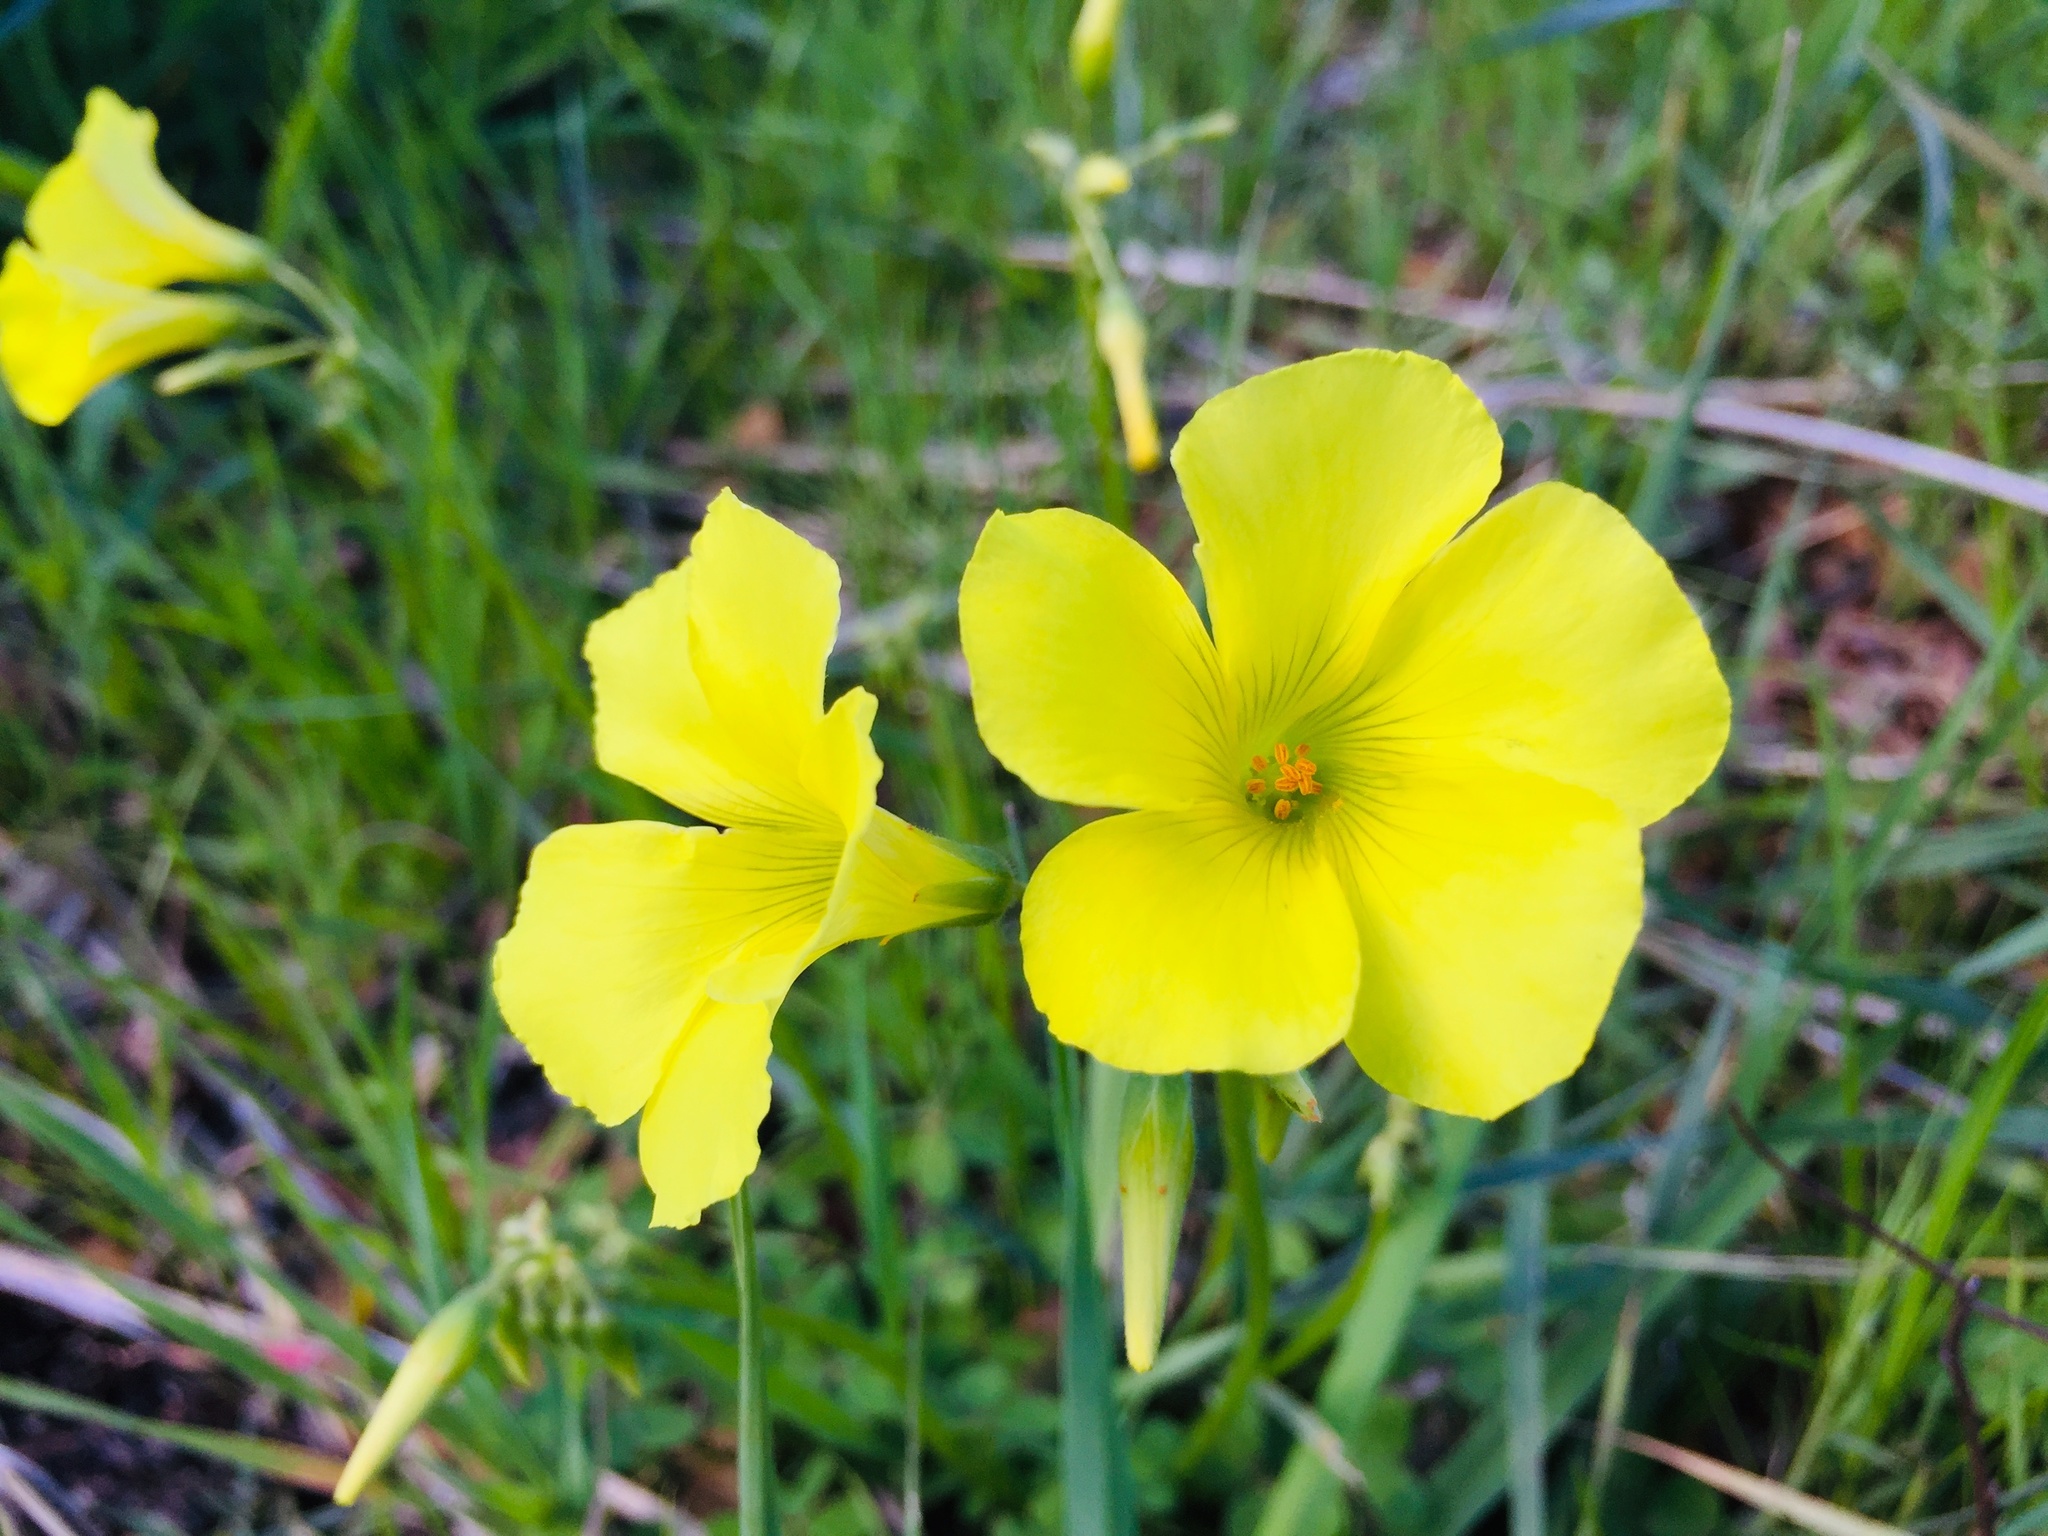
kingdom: Plantae
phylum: Tracheophyta
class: Magnoliopsida
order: Oxalidales
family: Oxalidaceae
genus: Oxalis
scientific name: Oxalis pes-caprae
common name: Bermuda-buttercup
